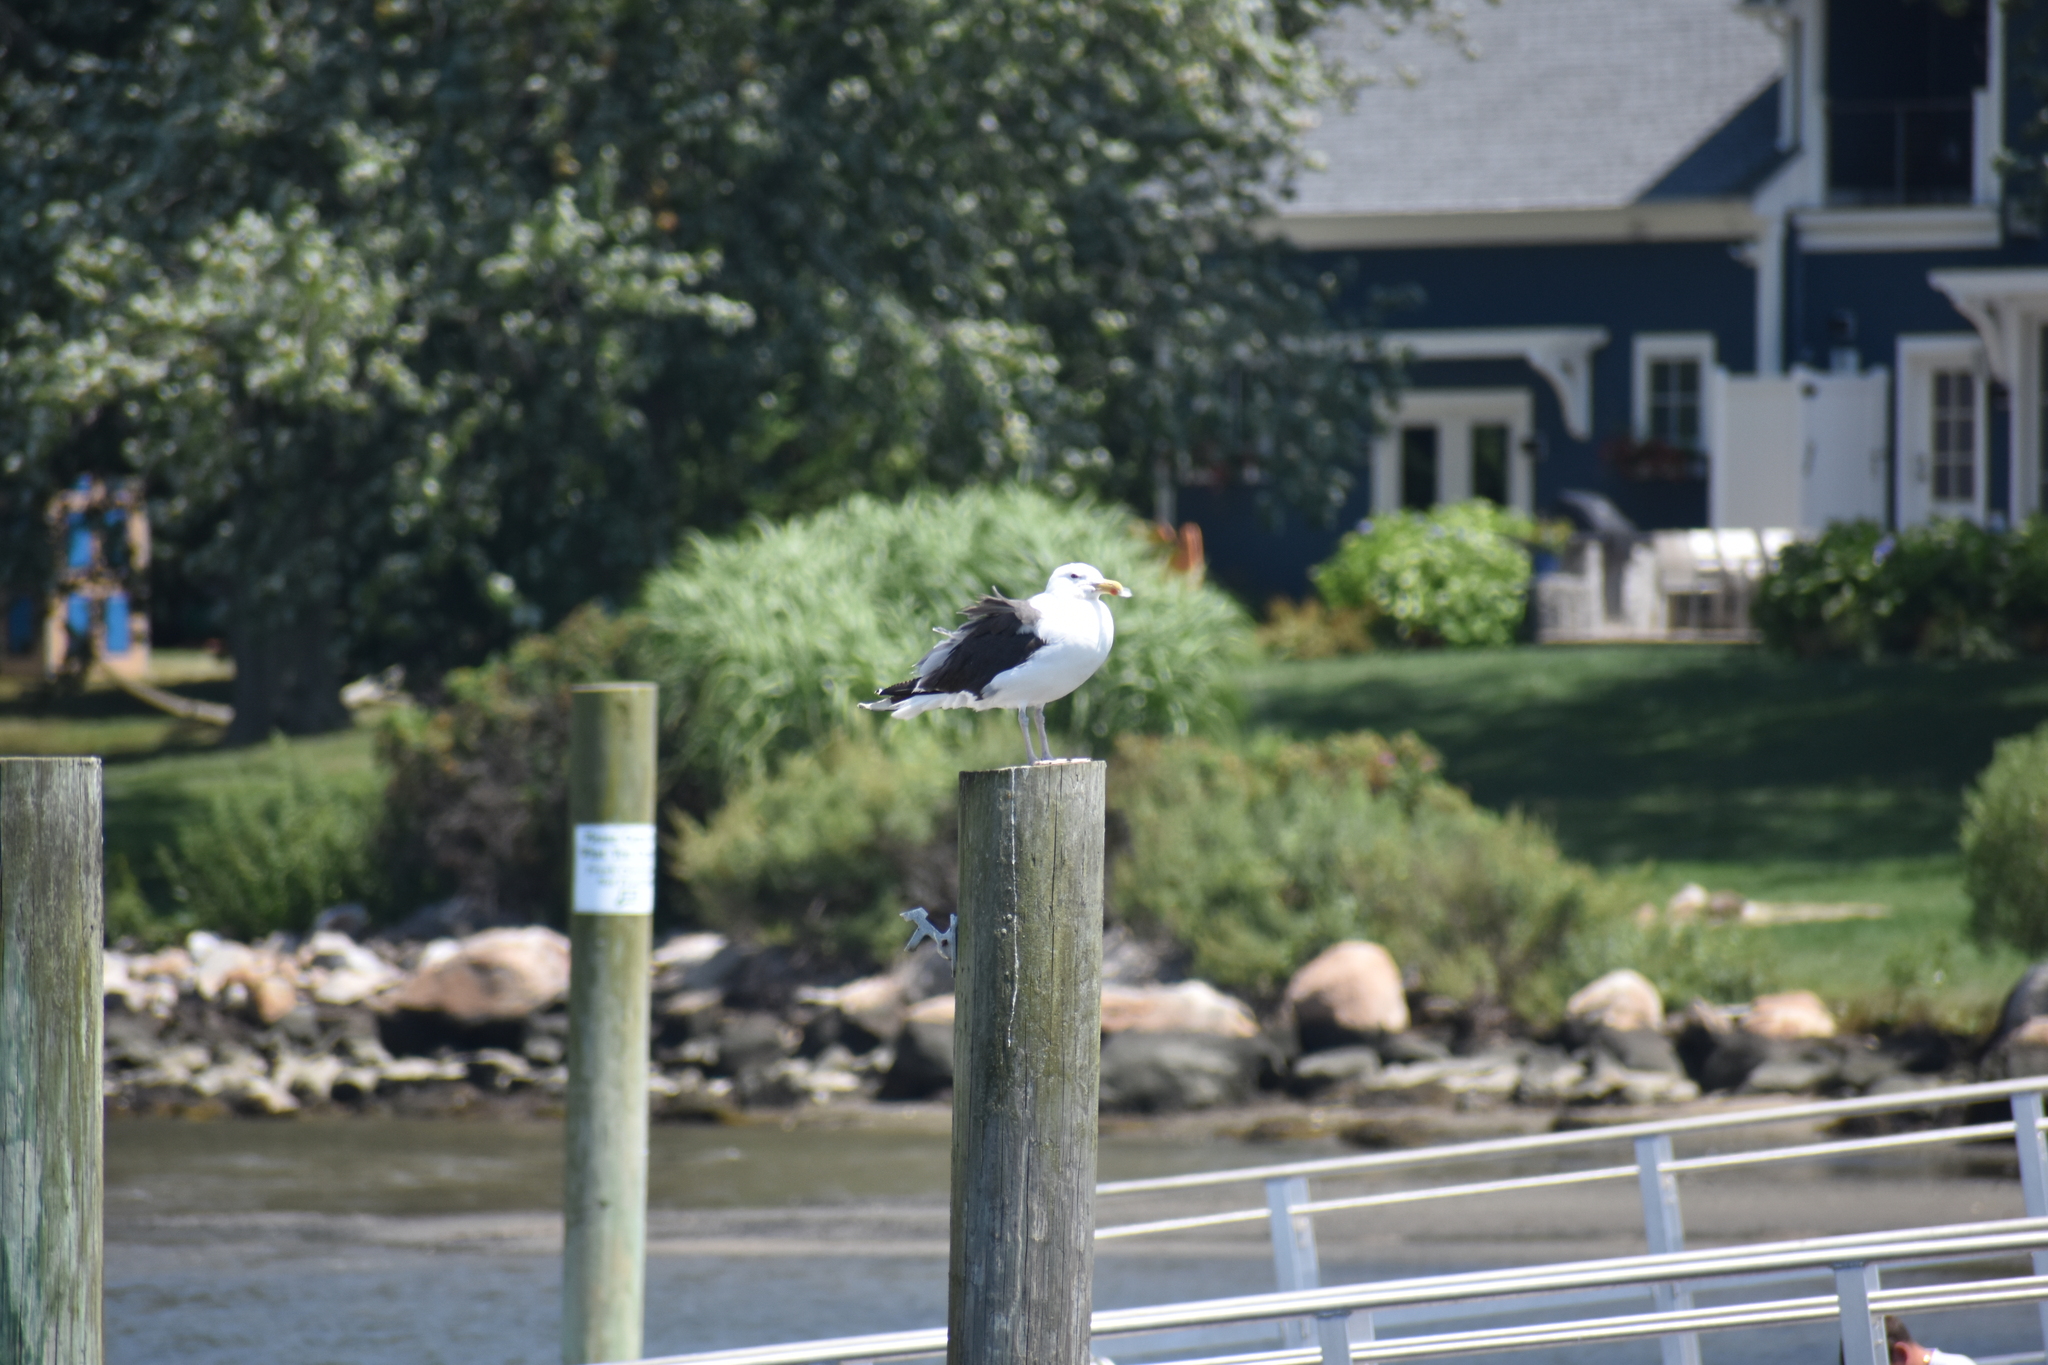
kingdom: Animalia
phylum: Chordata
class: Aves
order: Charadriiformes
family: Laridae
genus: Larus
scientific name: Larus marinus
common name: Great black-backed gull
